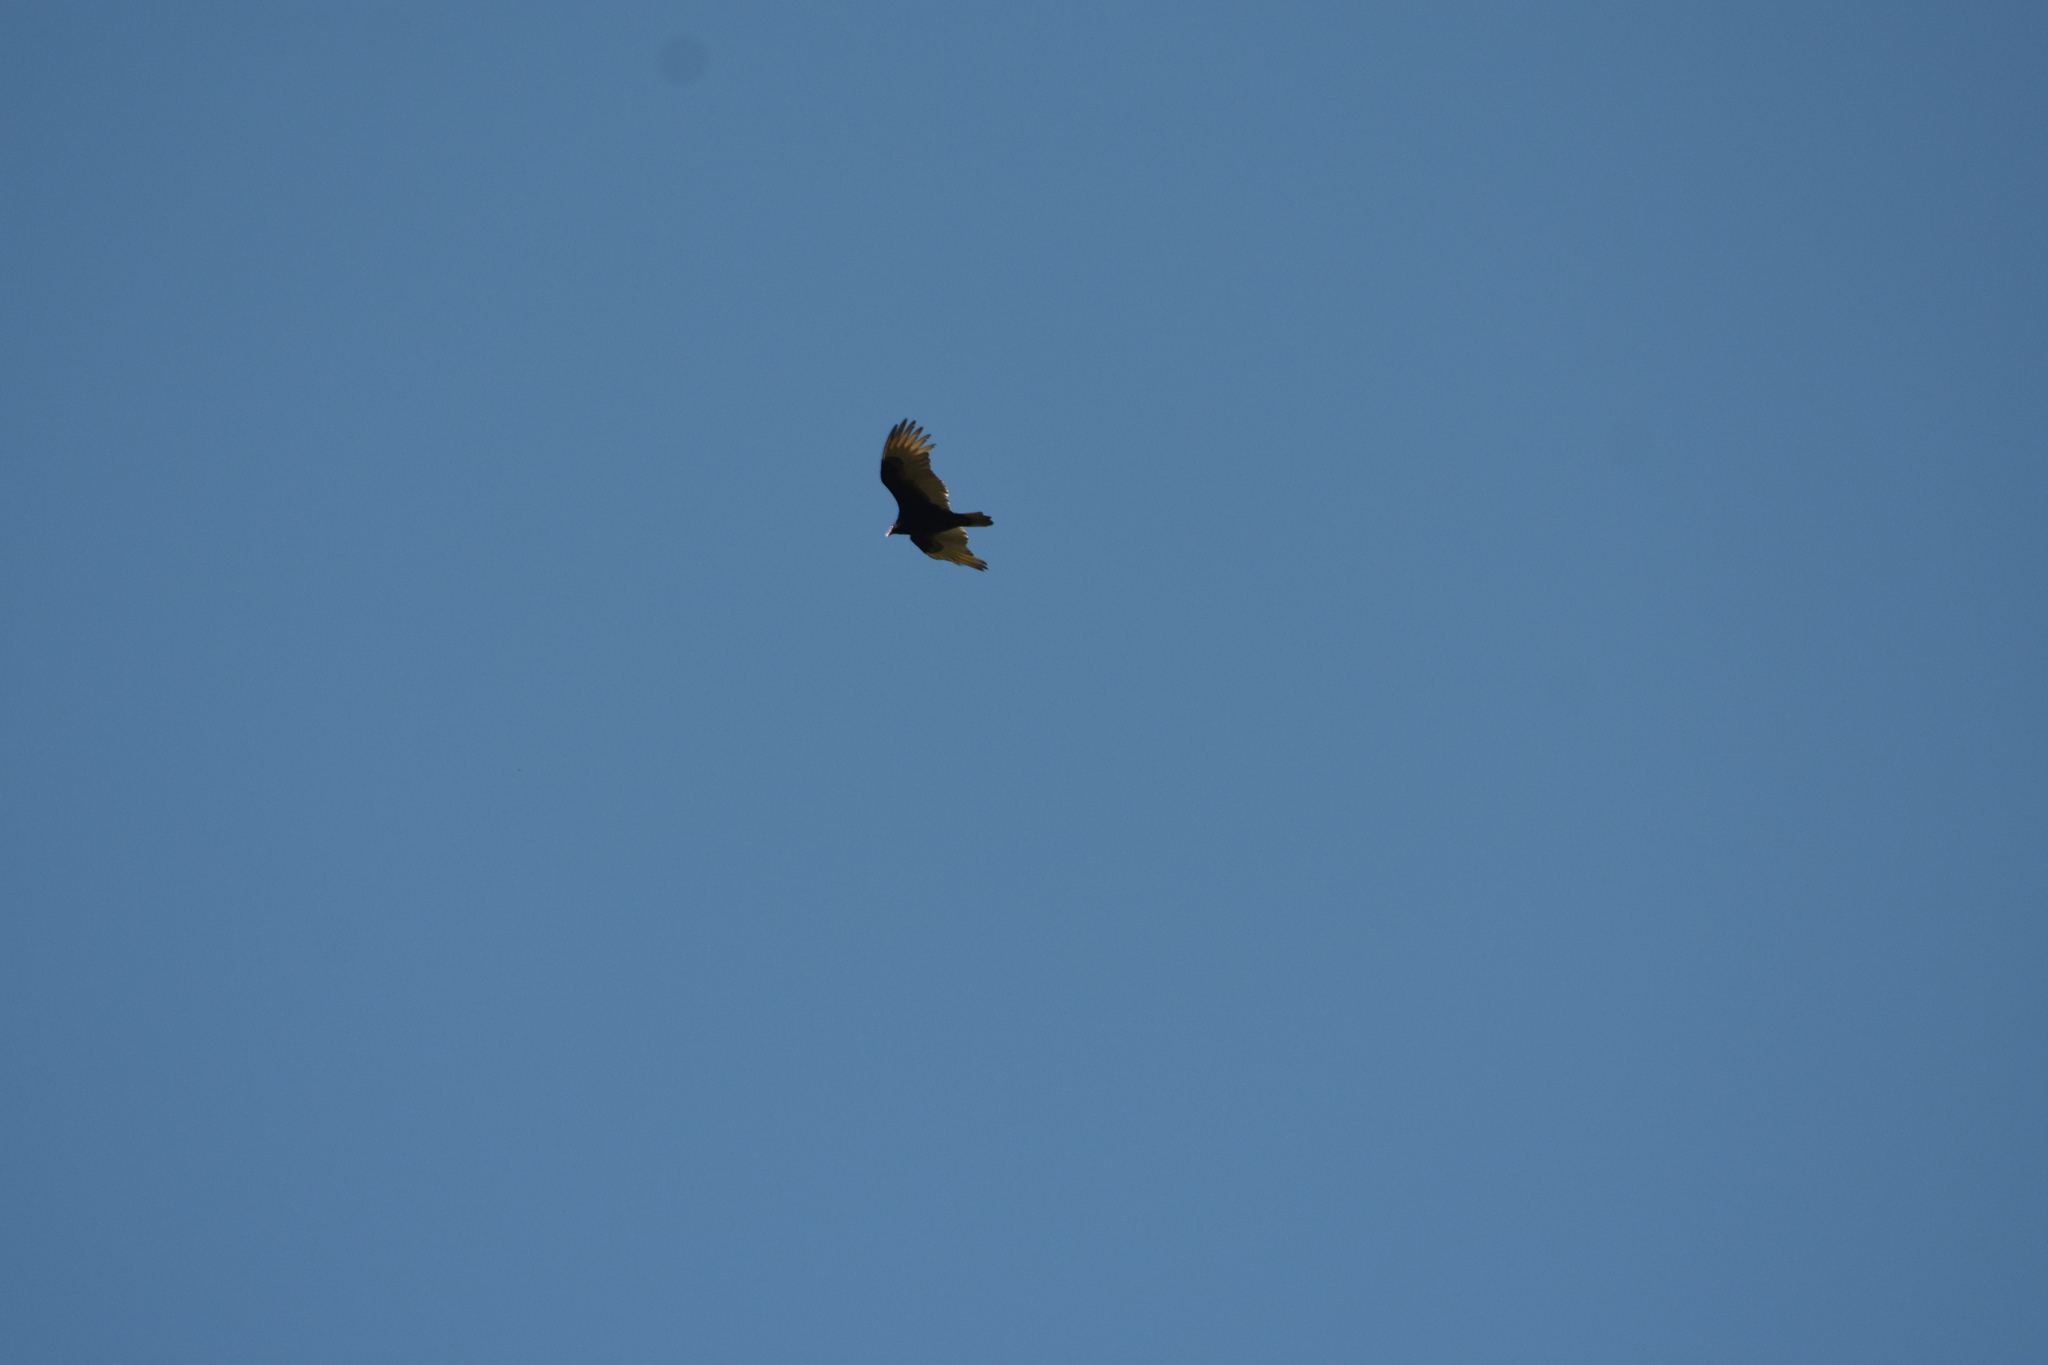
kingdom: Animalia
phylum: Chordata
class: Aves
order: Accipitriformes
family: Cathartidae
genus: Cathartes
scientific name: Cathartes aura
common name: Turkey vulture
